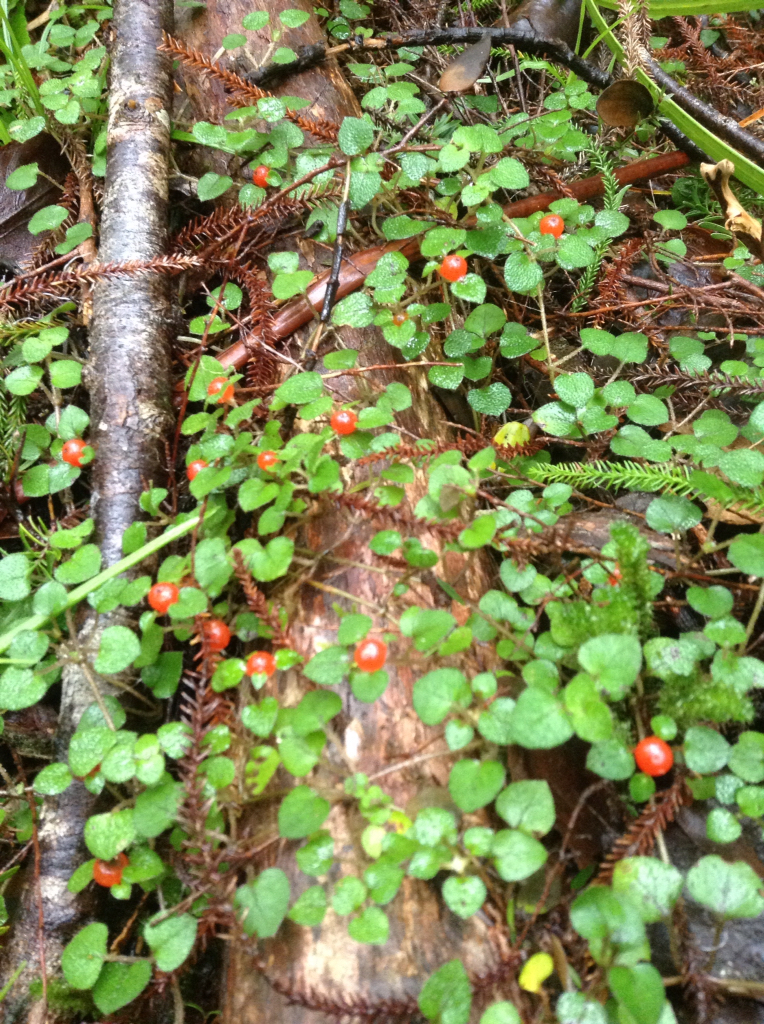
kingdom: Plantae
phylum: Tracheophyta
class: Magnoliopsida
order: Gentianales
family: Rubiaceae
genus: Nertera
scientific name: Nertera dichondrifolia
